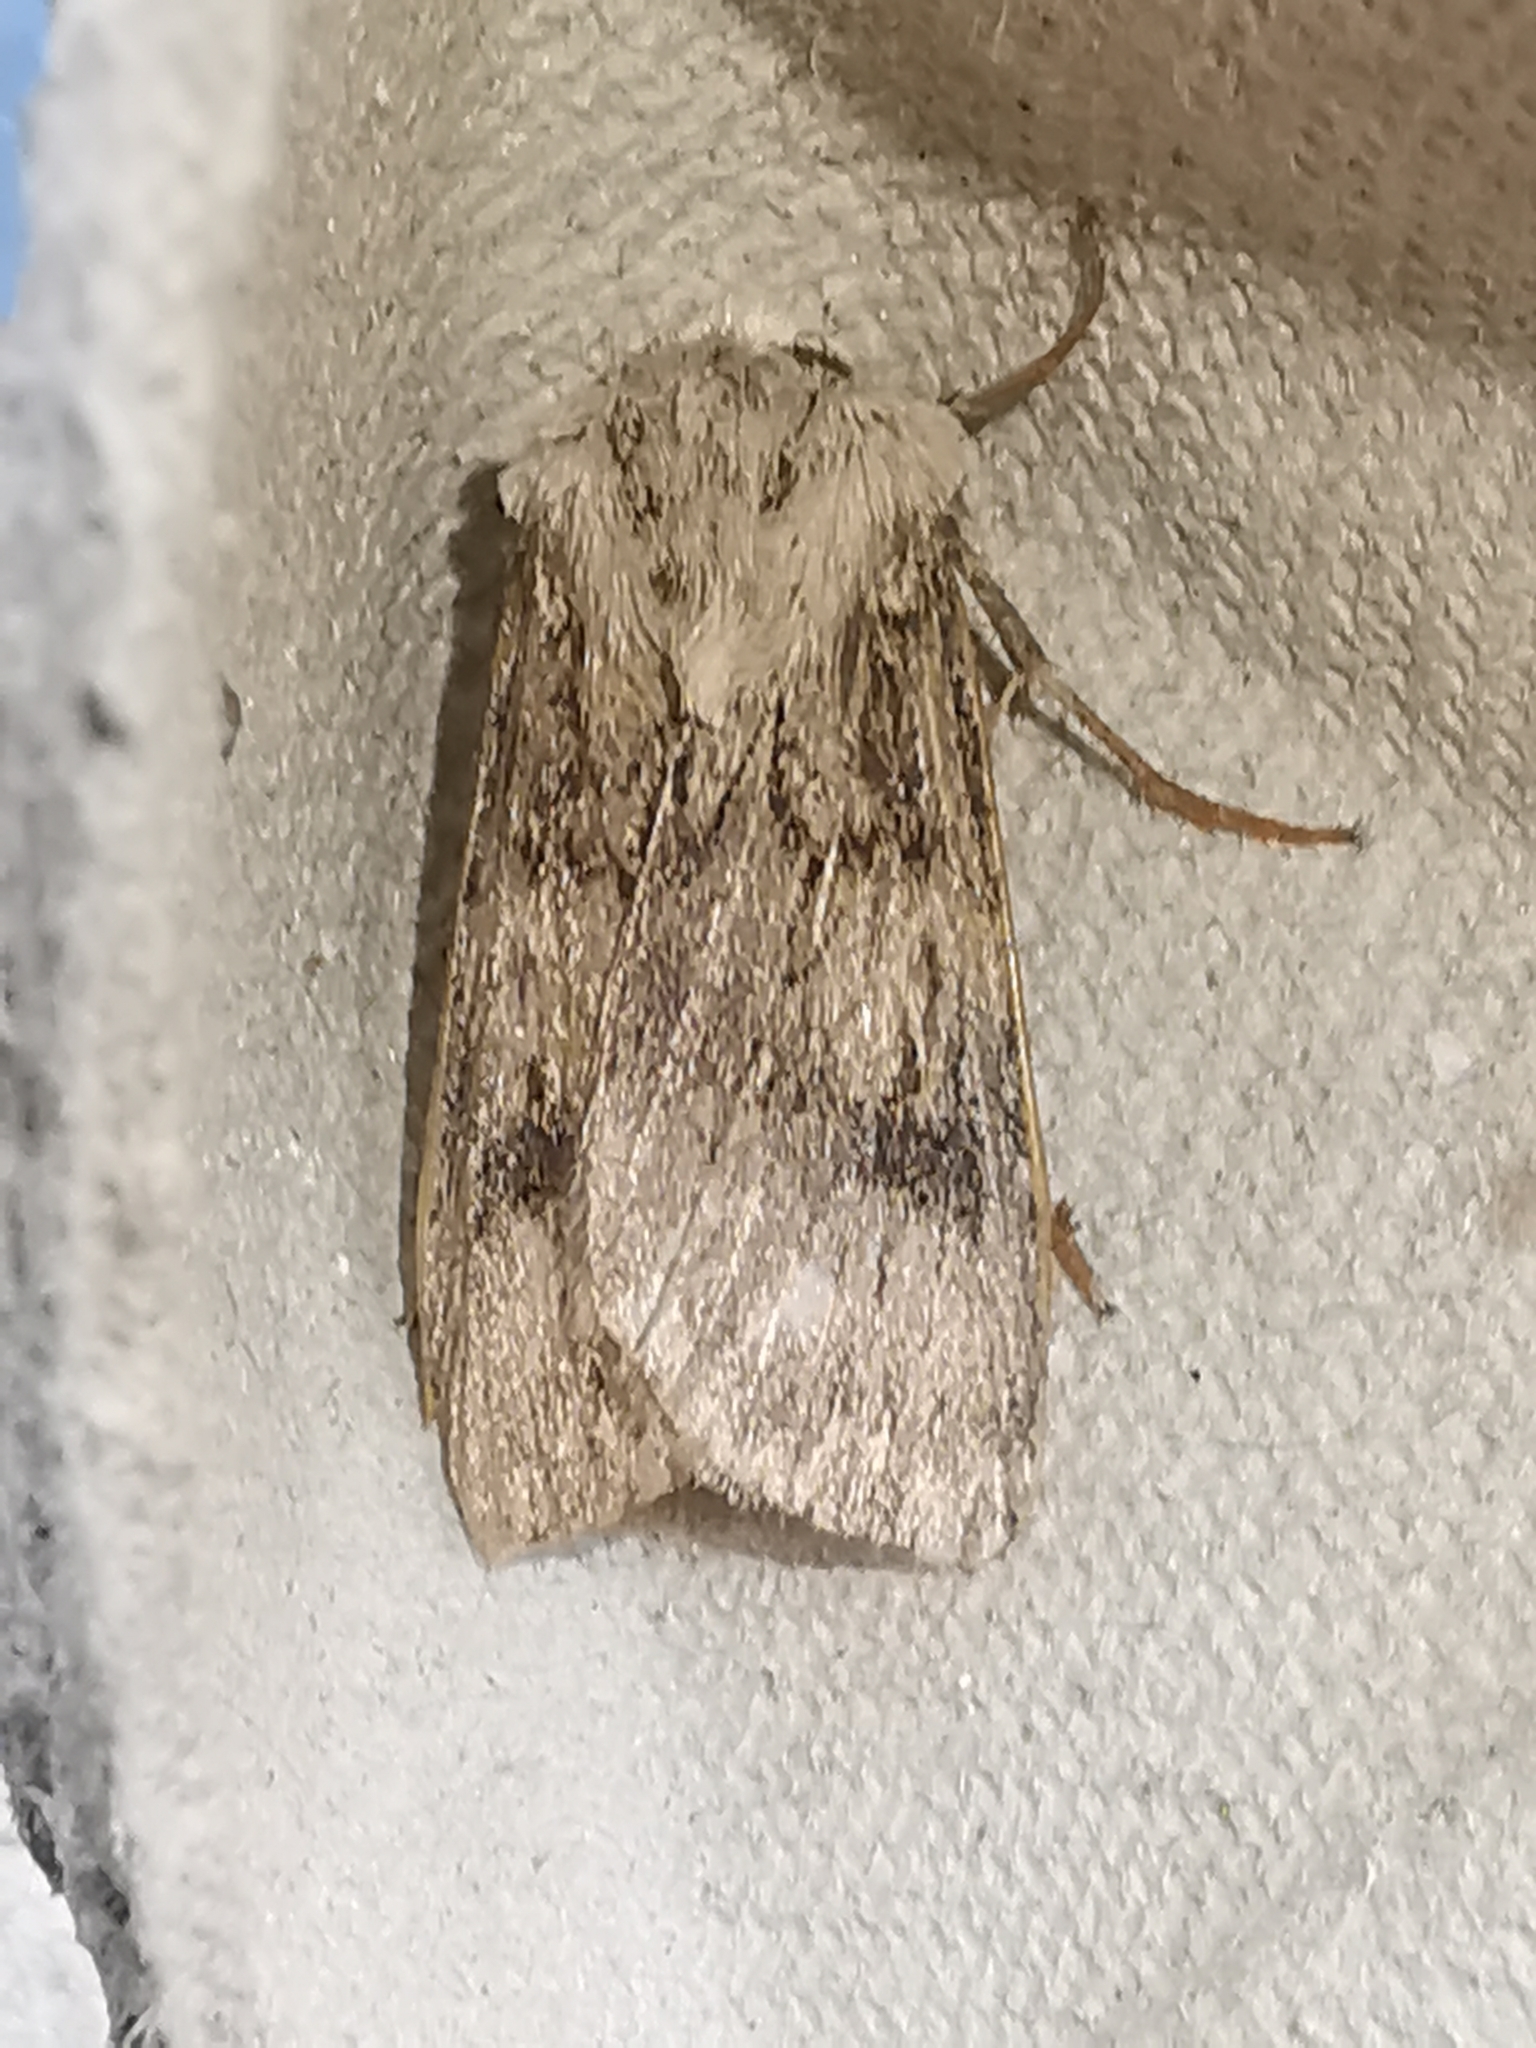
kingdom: Animalia
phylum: Arthropoda
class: Insecta
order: Lepidoptera
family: Noctuidae
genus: Agrotis
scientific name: Agrotis puta
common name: Shuttle-shaped dart
